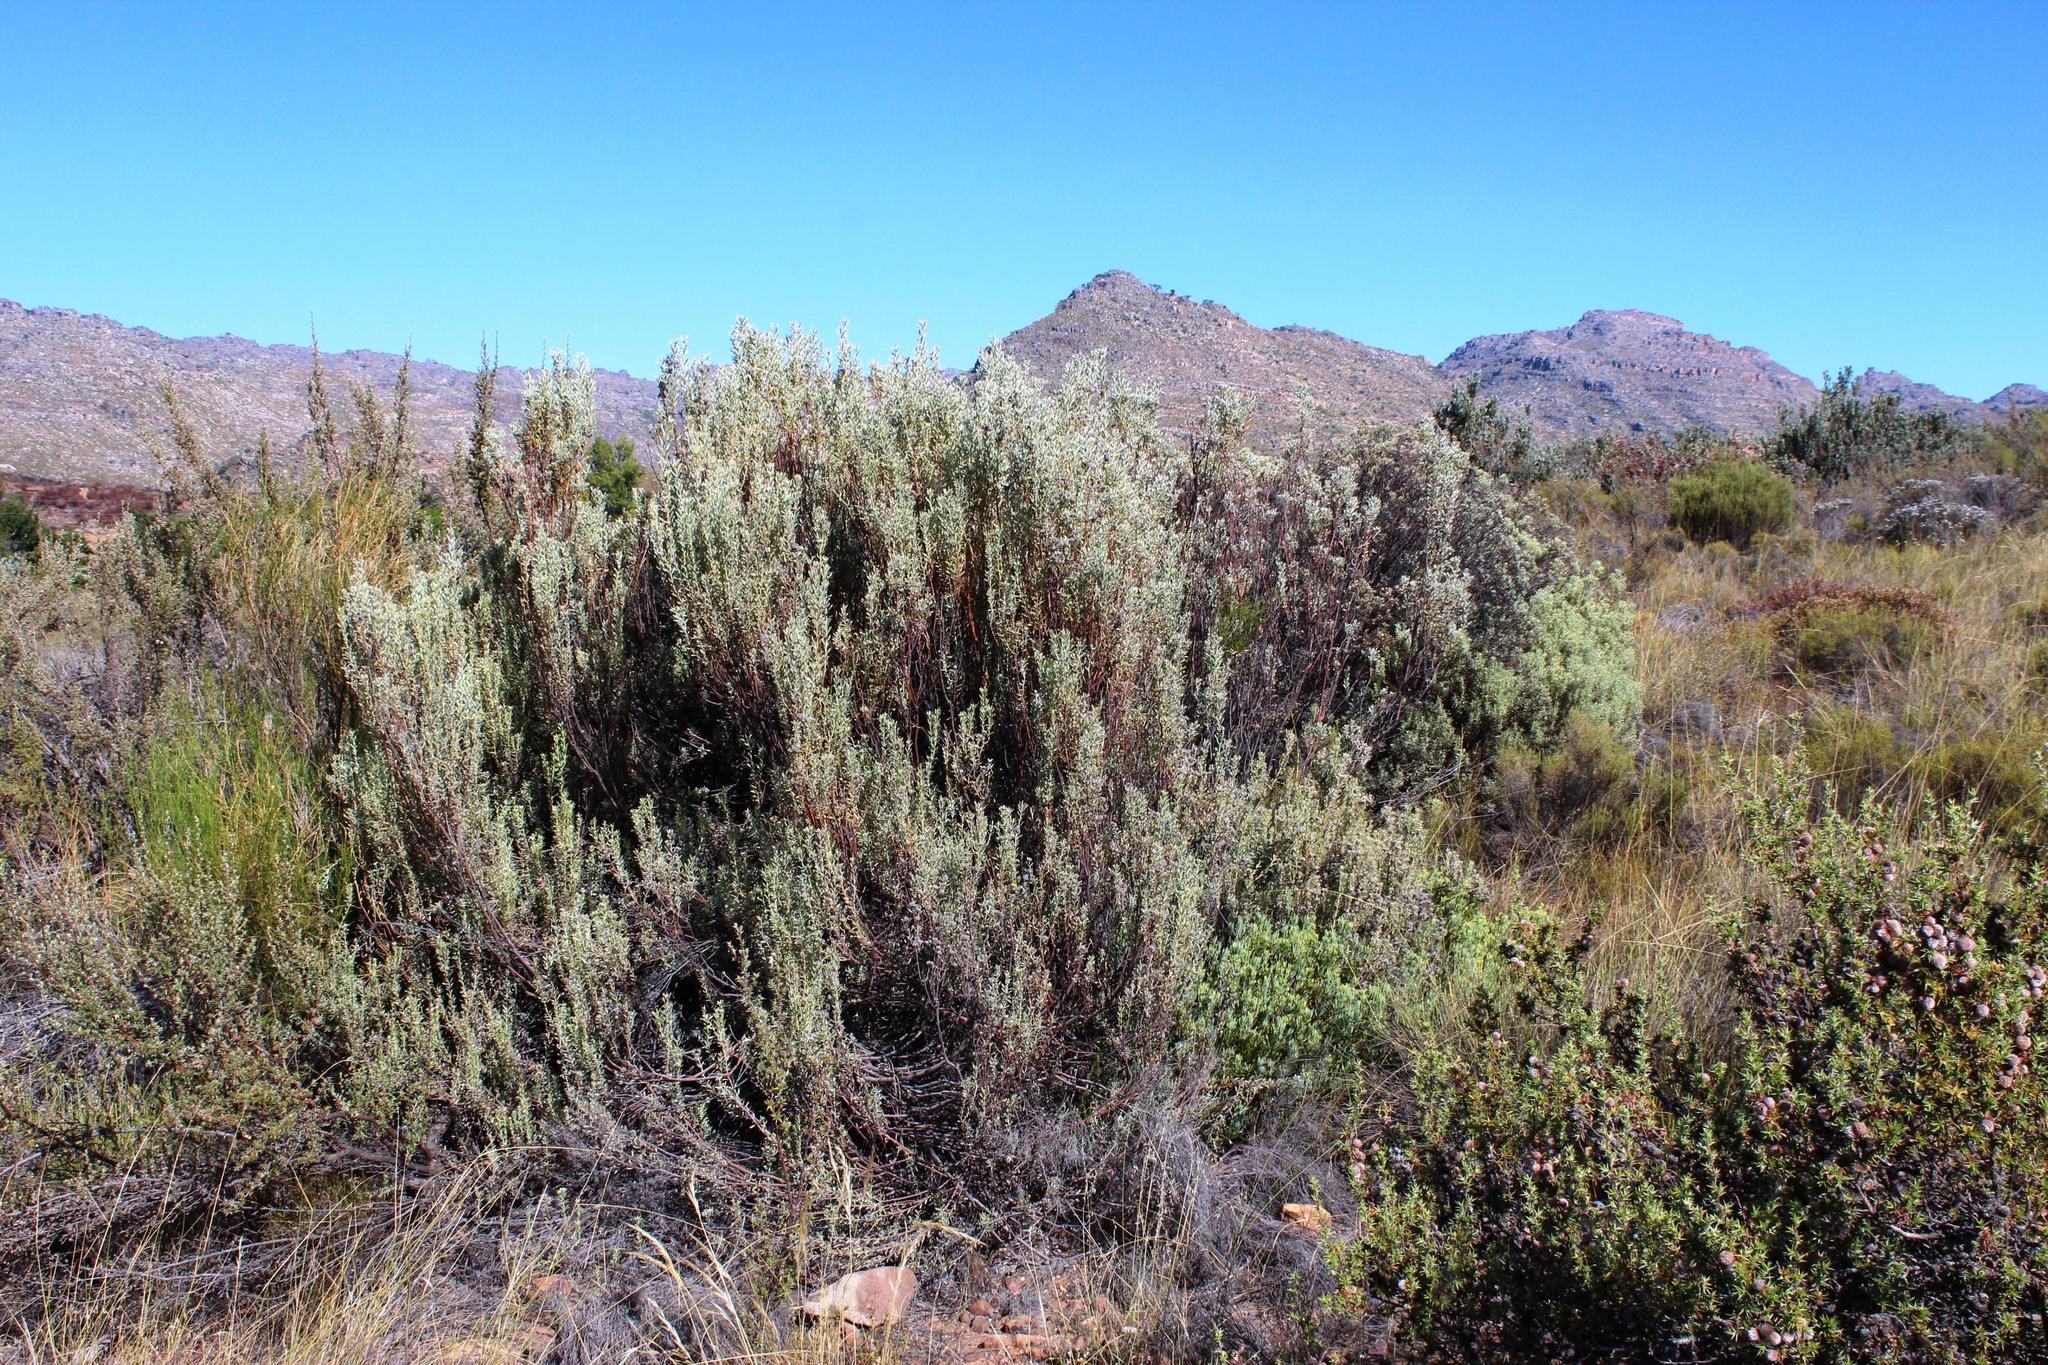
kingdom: Plantae
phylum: Tracheophyta
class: Magnoliopsida
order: Proteales
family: Proteaceae
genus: Leucadendron
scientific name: Leucadendron pubescens
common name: Grey conebush
